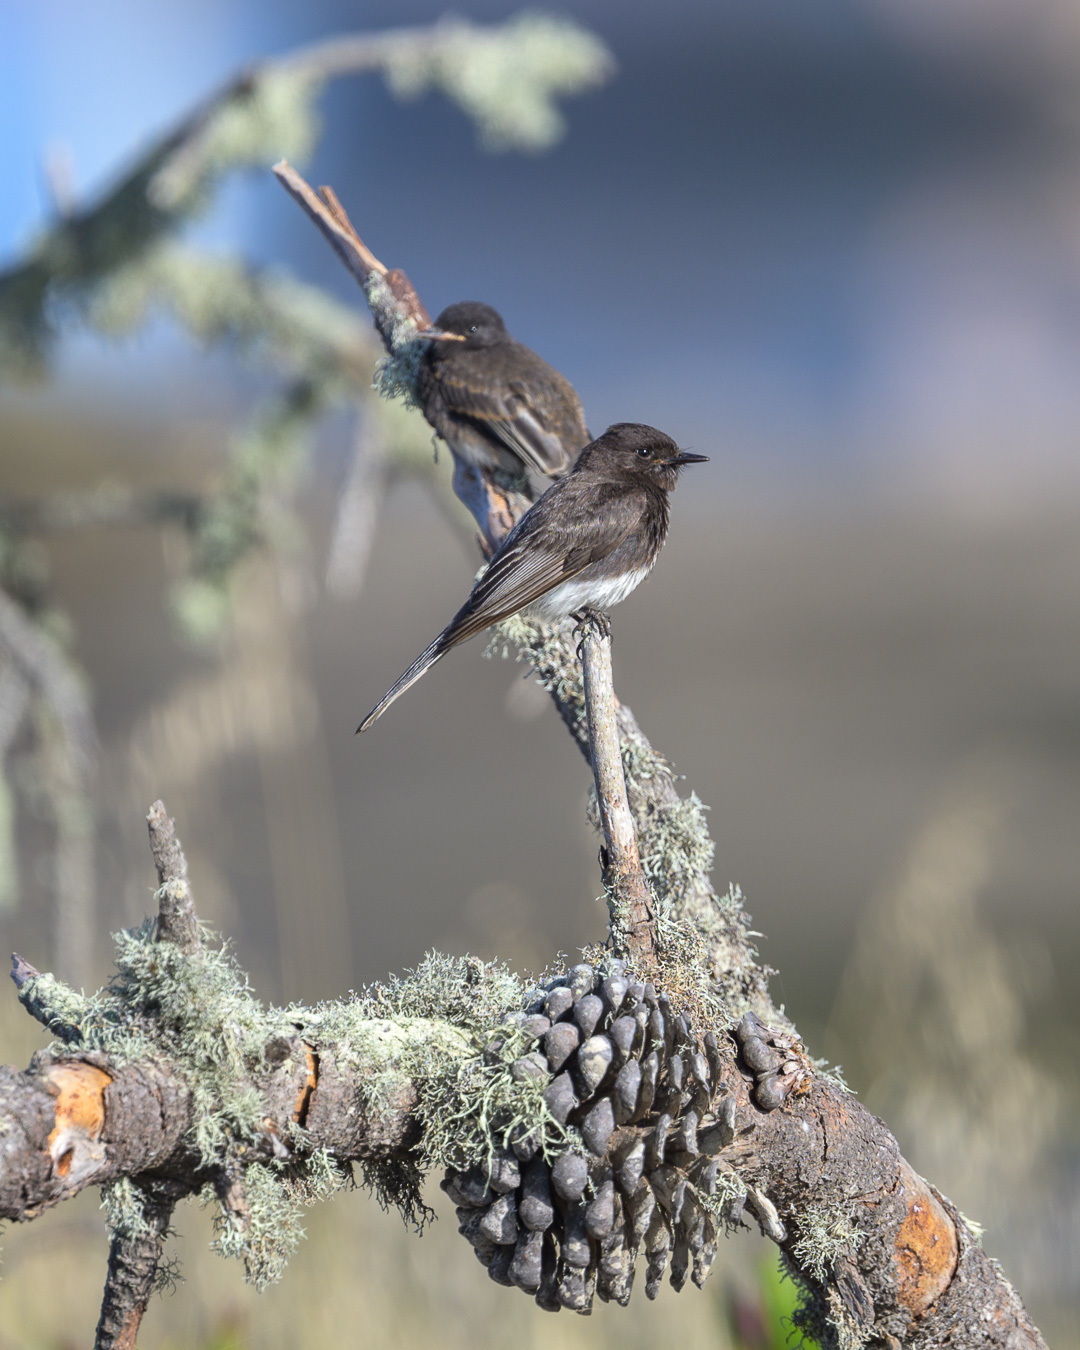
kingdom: Animalia
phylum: Chordata
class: Aves
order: Passeriformes
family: Tyrannidae
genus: Sayornis
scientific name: Sayornis nigricans
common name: Black phoebe
